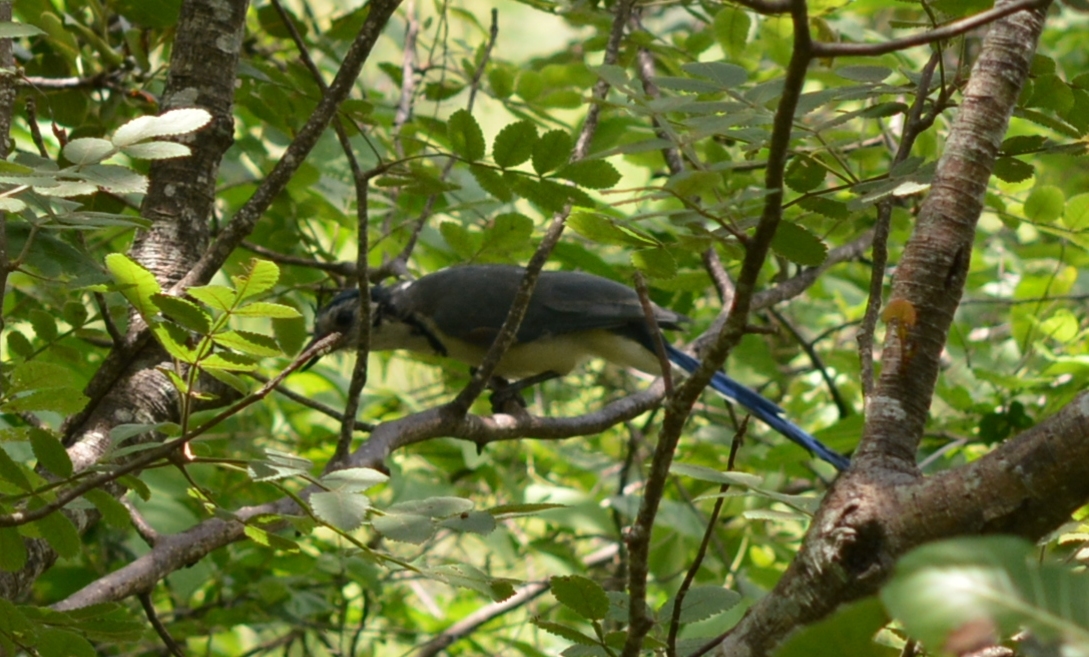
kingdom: Animalia
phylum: Chordata
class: Aves
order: Passeriformes
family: Corvidae
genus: Calocitta
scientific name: Calocitta formosa
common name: White-throated magpie-jay
